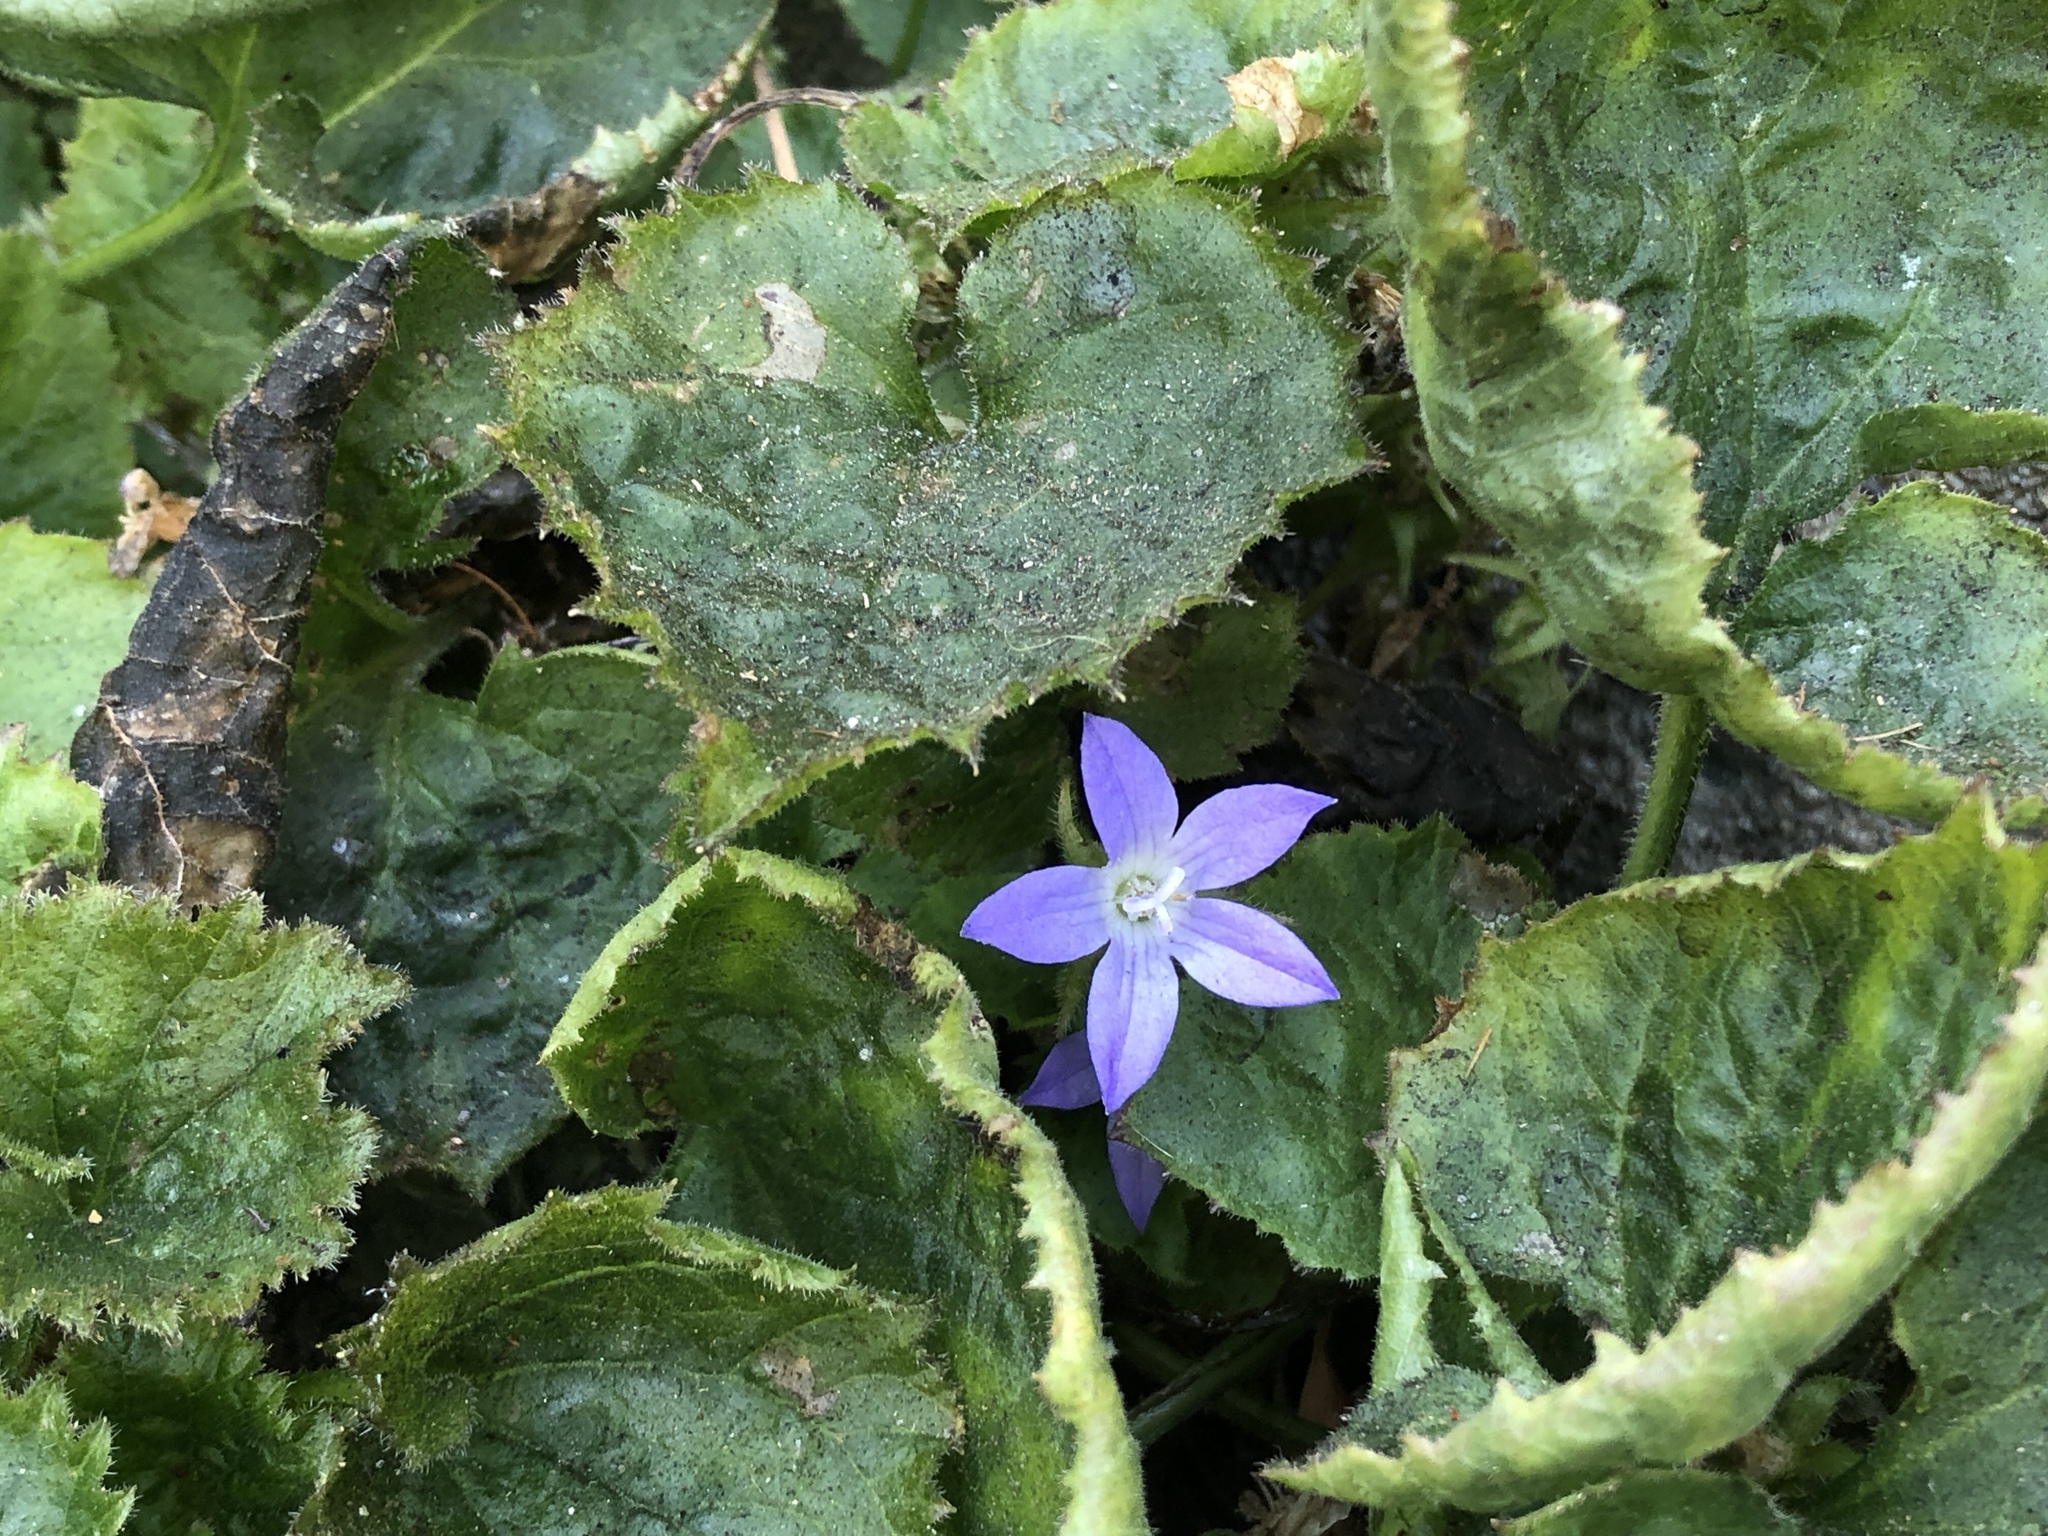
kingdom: Plantae
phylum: Tracheophyta
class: Magnoliopsida
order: Asterales
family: Campanulaceae
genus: Campanula
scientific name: Campanula poscharskyana
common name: Trailing bellflower
